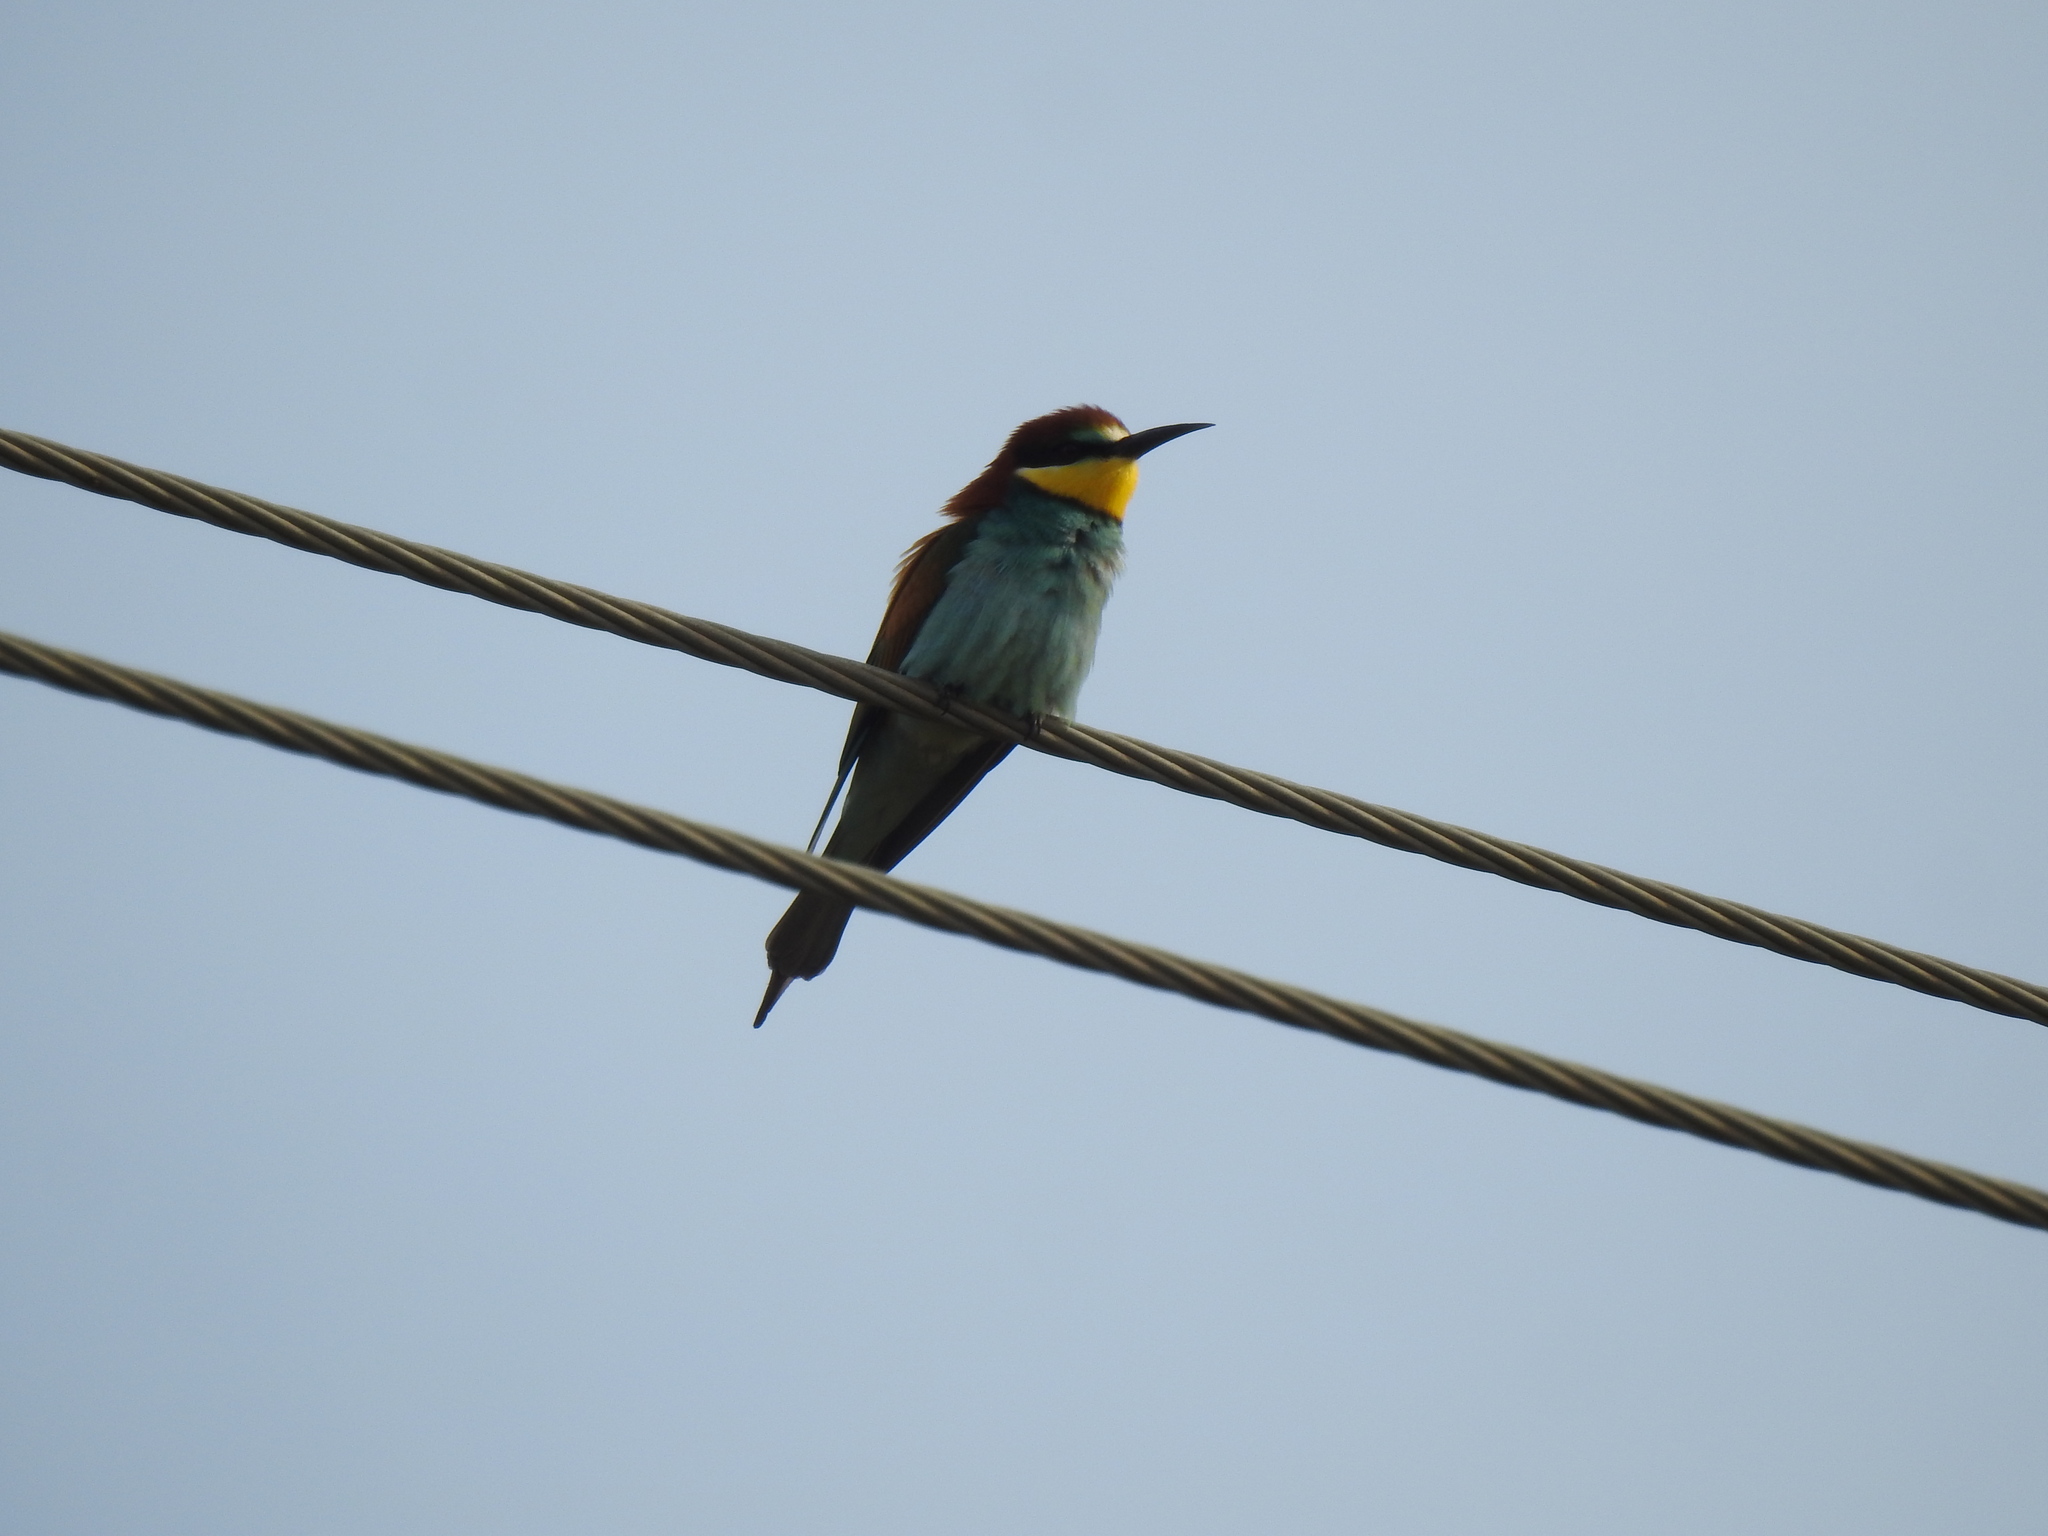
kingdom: Animalia
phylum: Chordata
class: Aves
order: Coraciiformes
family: Meropidae
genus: Merops
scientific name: Merops apiaster
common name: European bee-eater
